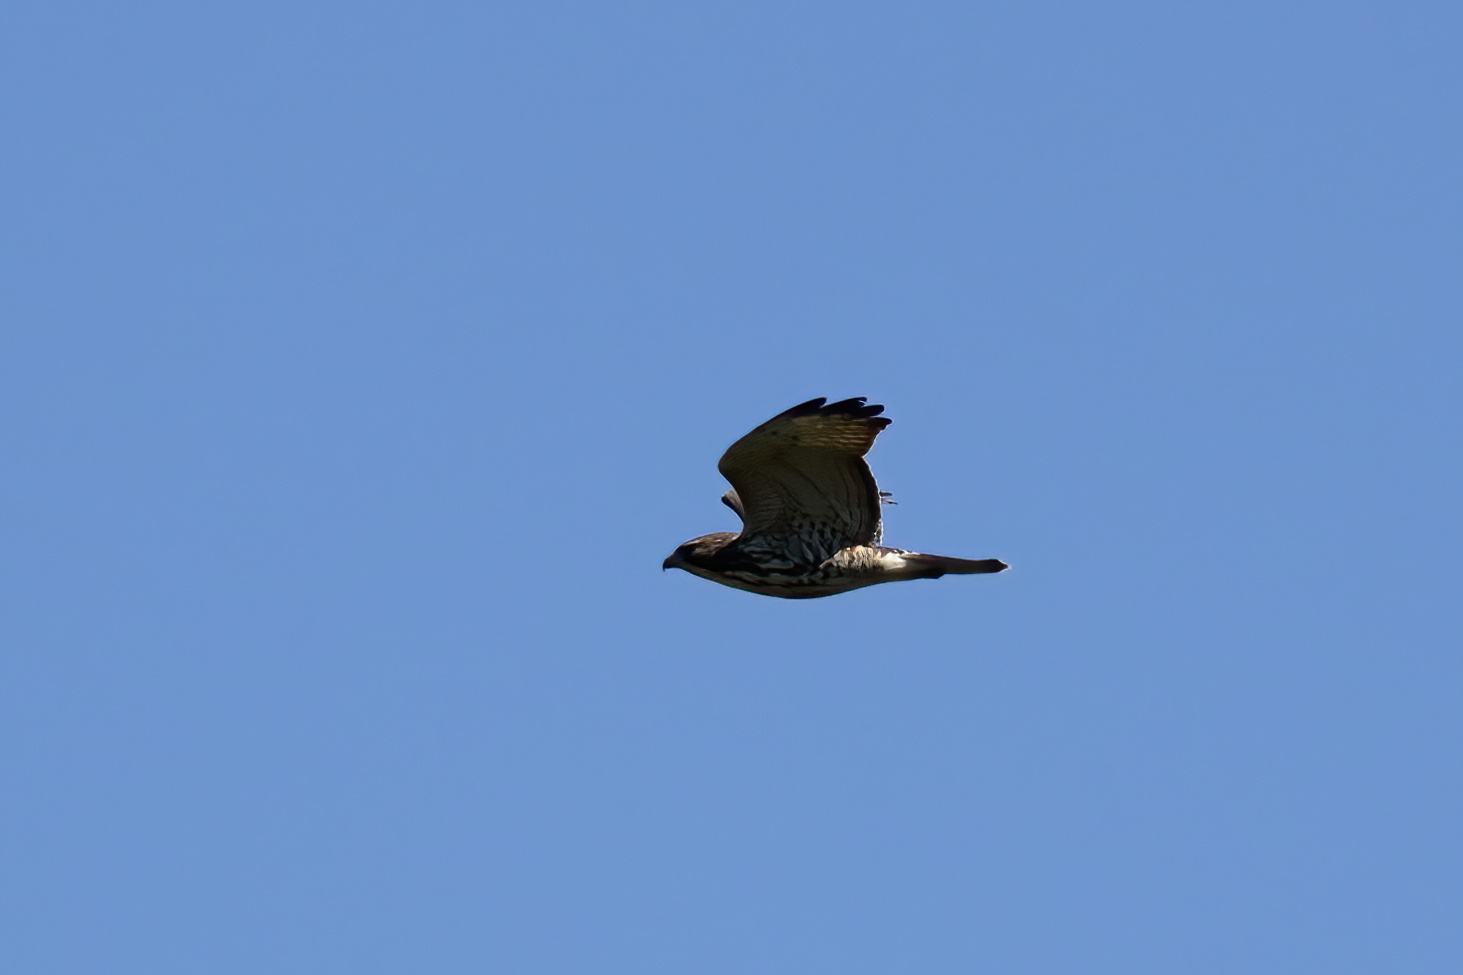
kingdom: Animalia
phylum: Chordata
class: Aves
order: Accipitriformes
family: Accipitridae
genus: Buteo
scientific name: Buteo platypterus
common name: Broad-winged hawk
